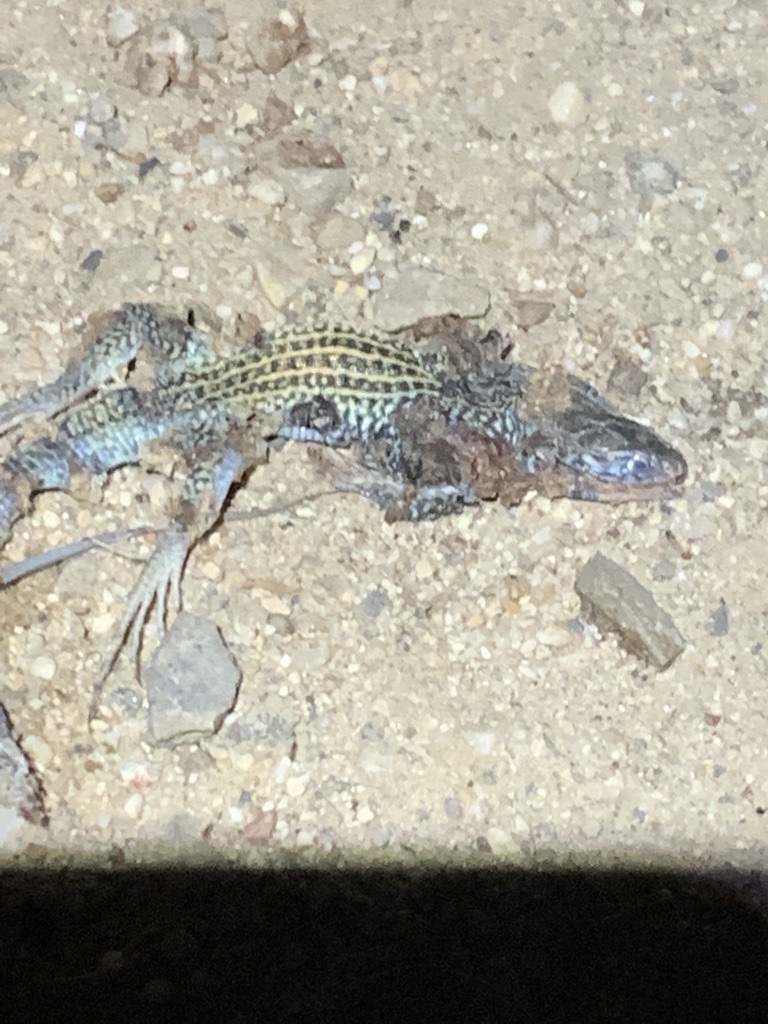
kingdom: Animalia
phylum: Chordata
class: Squamata
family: Teiidae
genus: Aspidoscelis
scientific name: Aspidoscelis tigris
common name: Tiger whiptail
